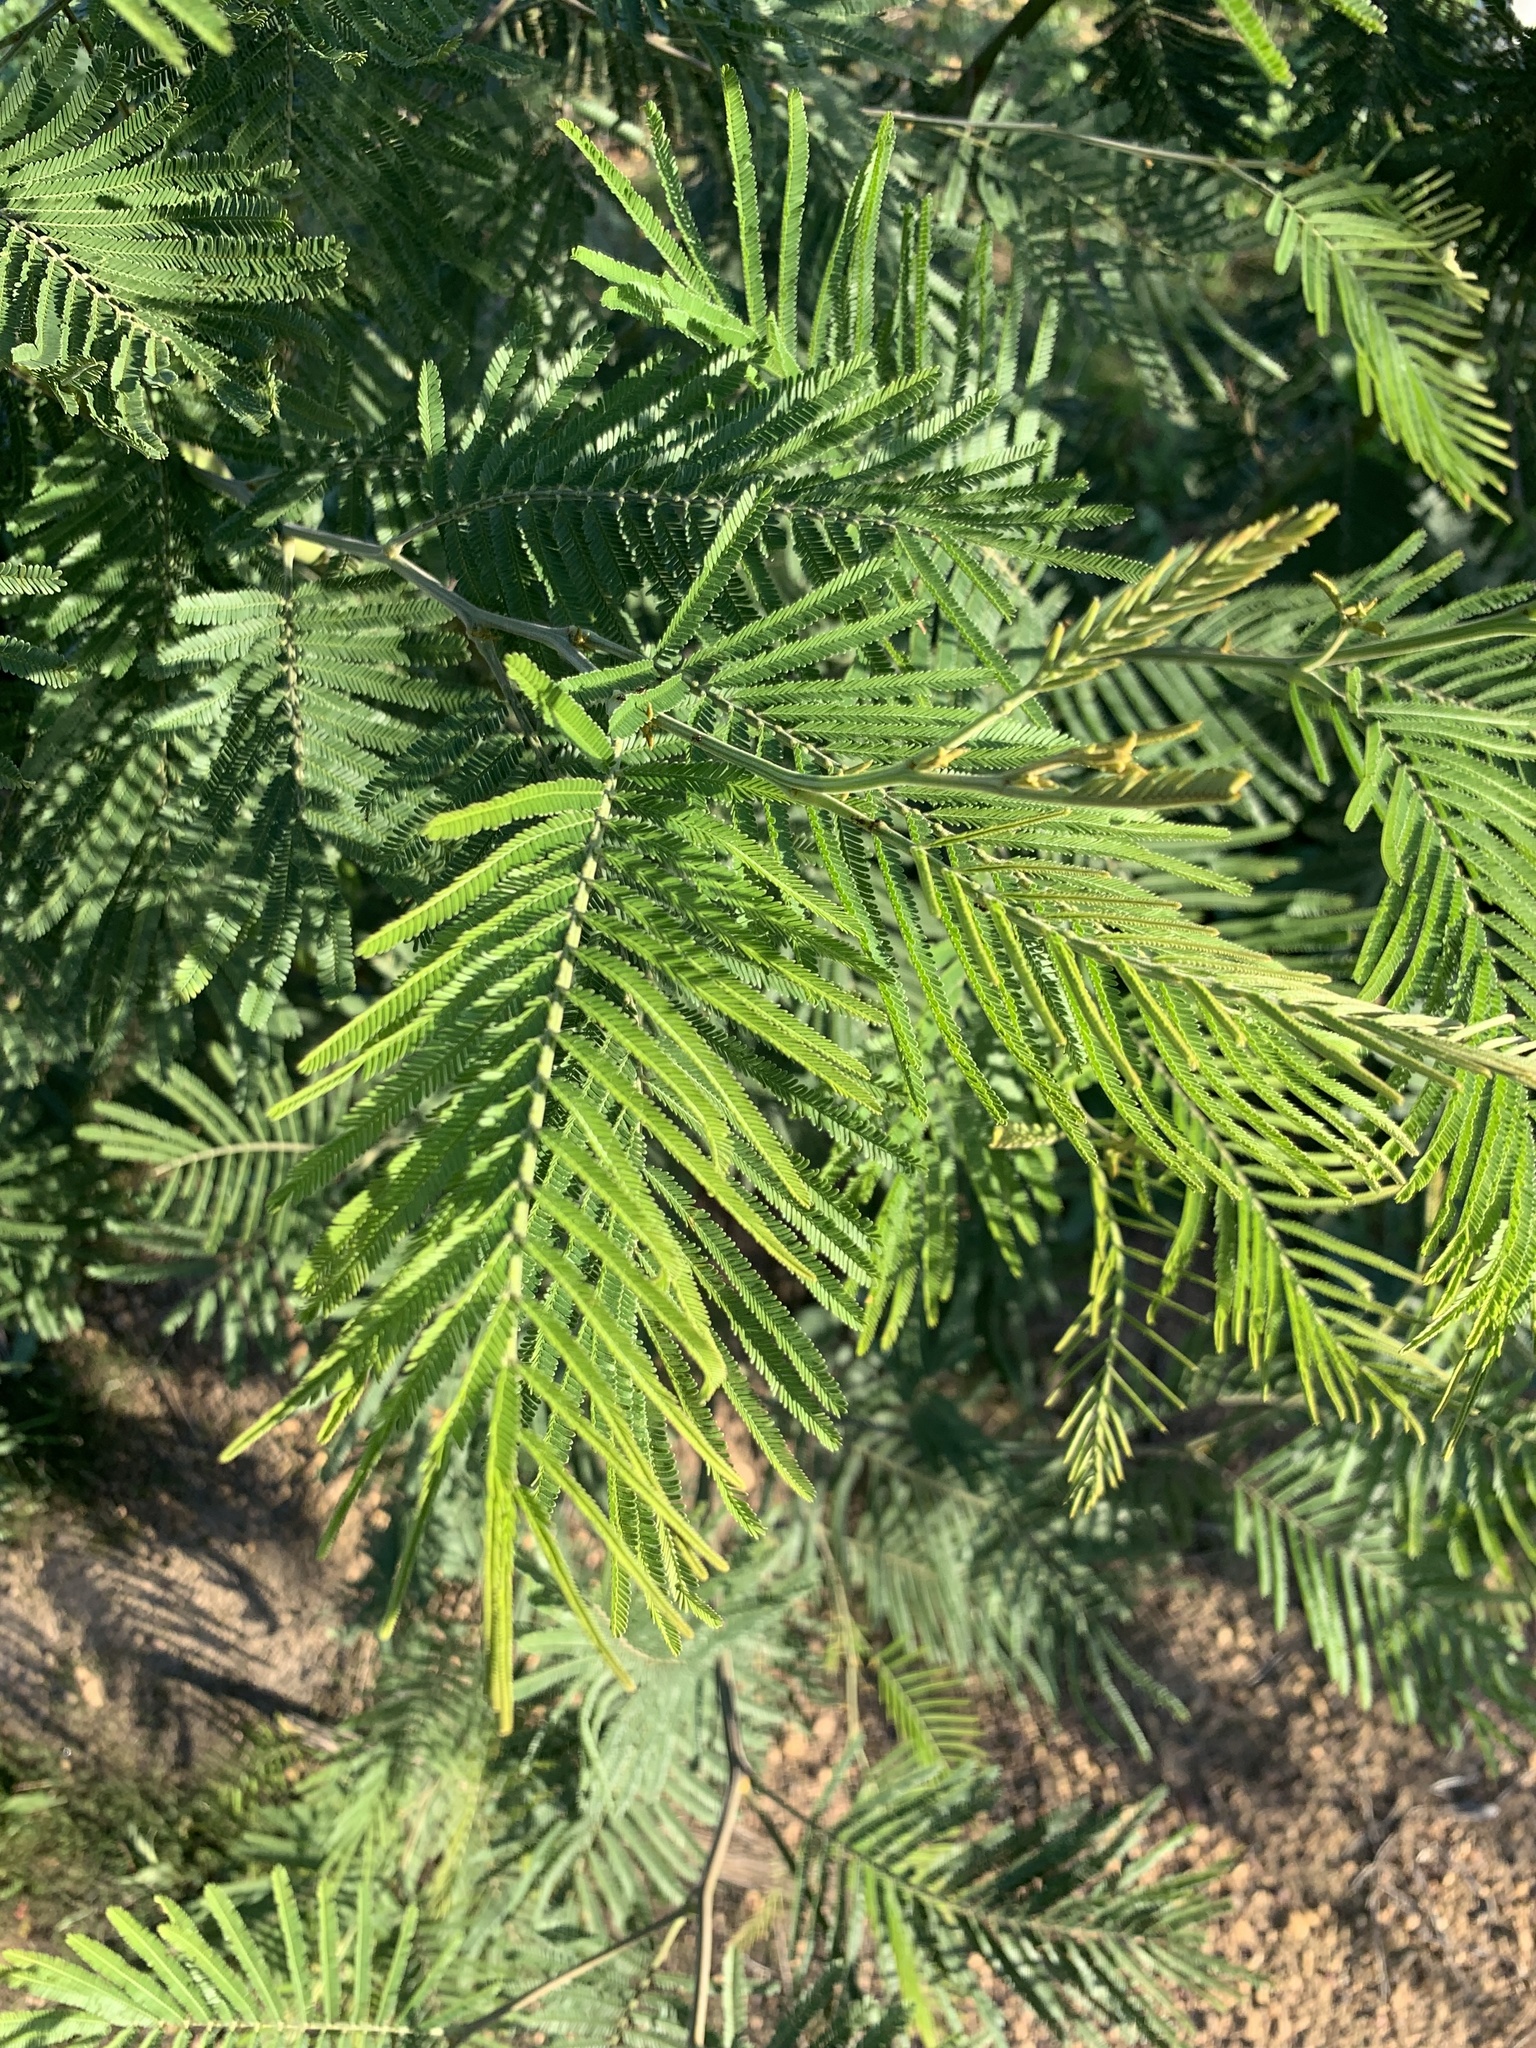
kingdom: Plantae
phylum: Tracheophyta
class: Magnoliopsida
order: Fabales
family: Fabaceae
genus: Acacia
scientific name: Acacia mearnsii
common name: Black wattle
